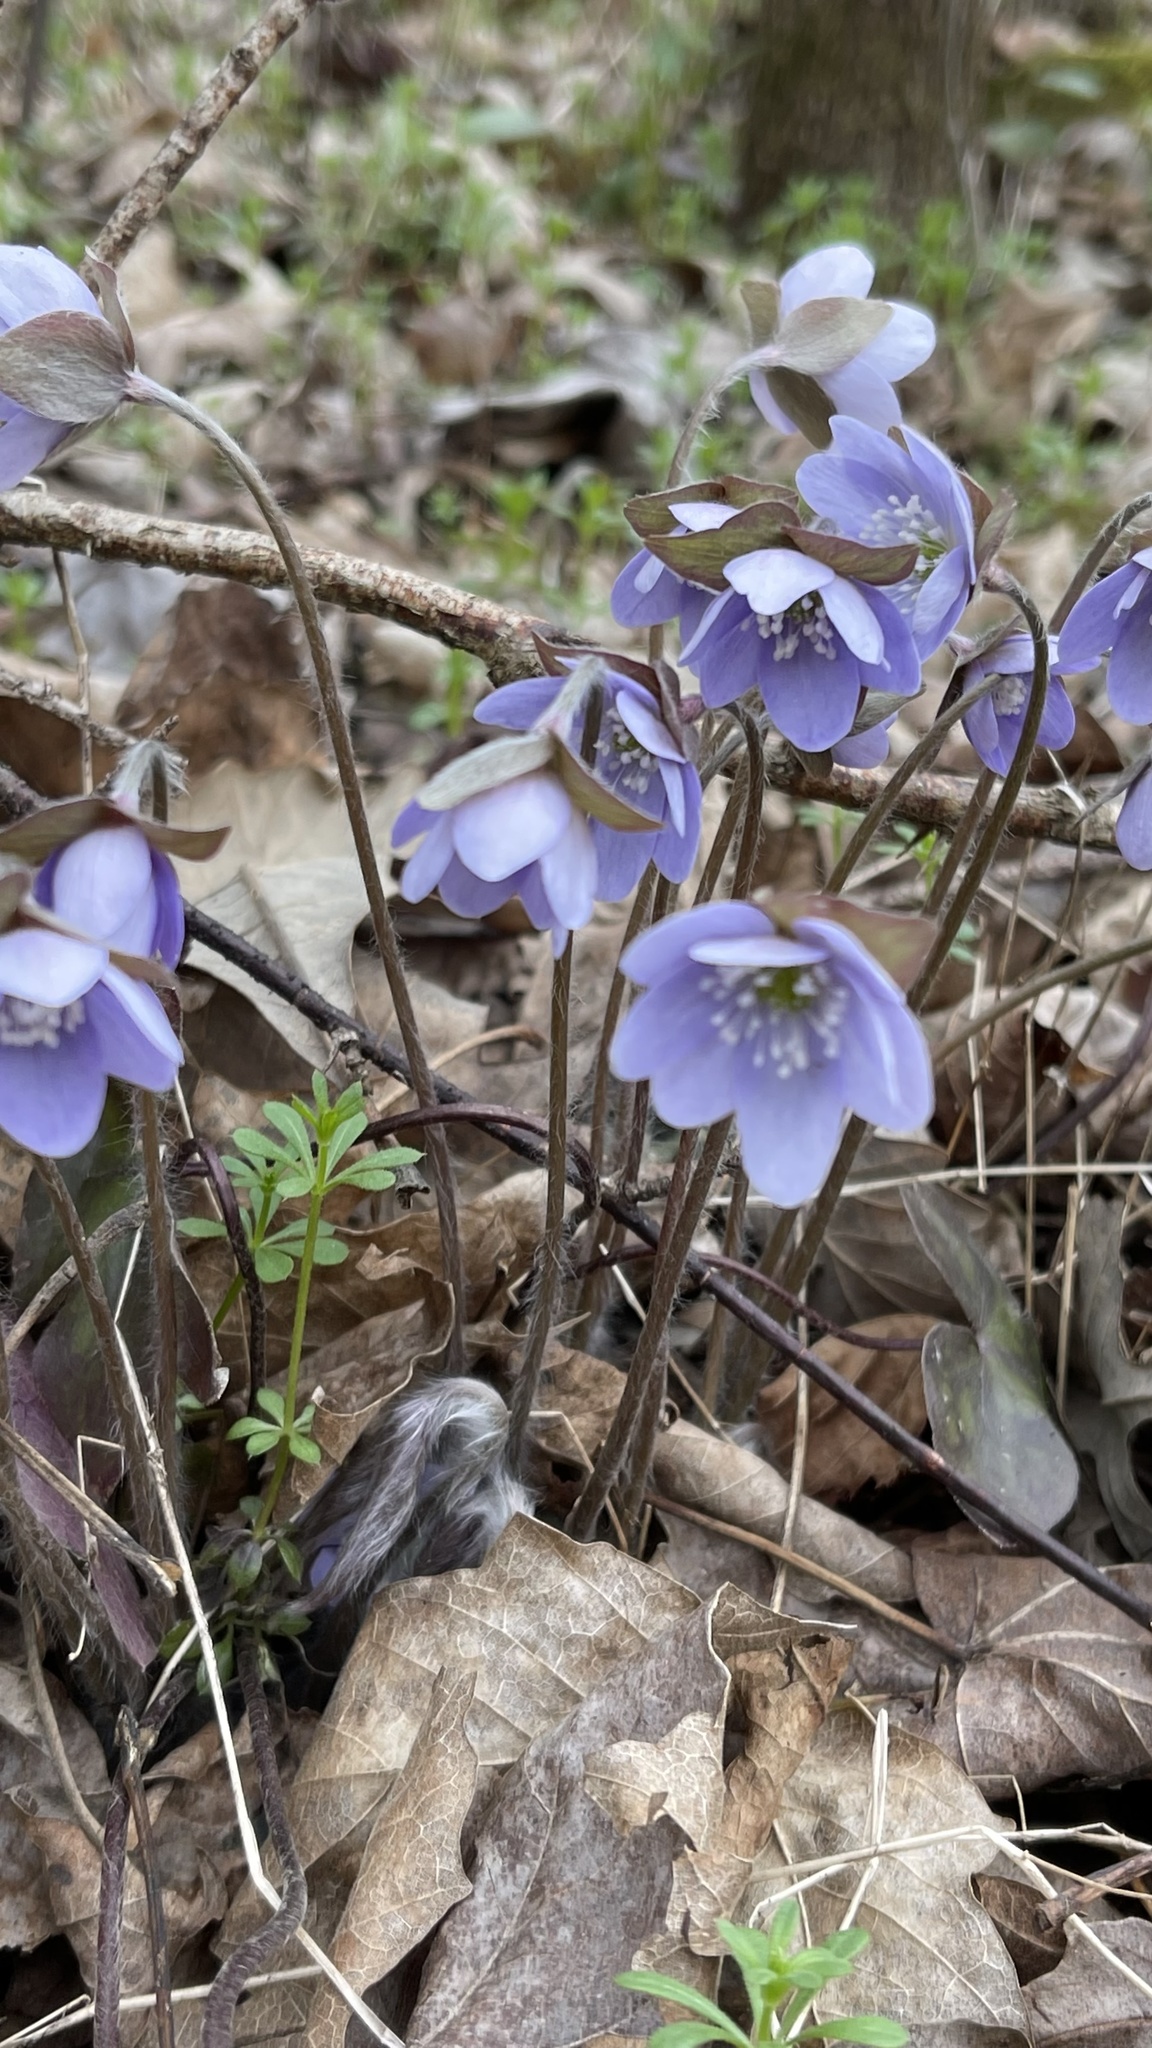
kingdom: Plantae
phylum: Tracheophyta
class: Magnoliopsida
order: Ranunculales
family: Ranunculaceae
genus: Hepatica
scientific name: Hepatica acutiloba
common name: Sharp-lobed hepatica
